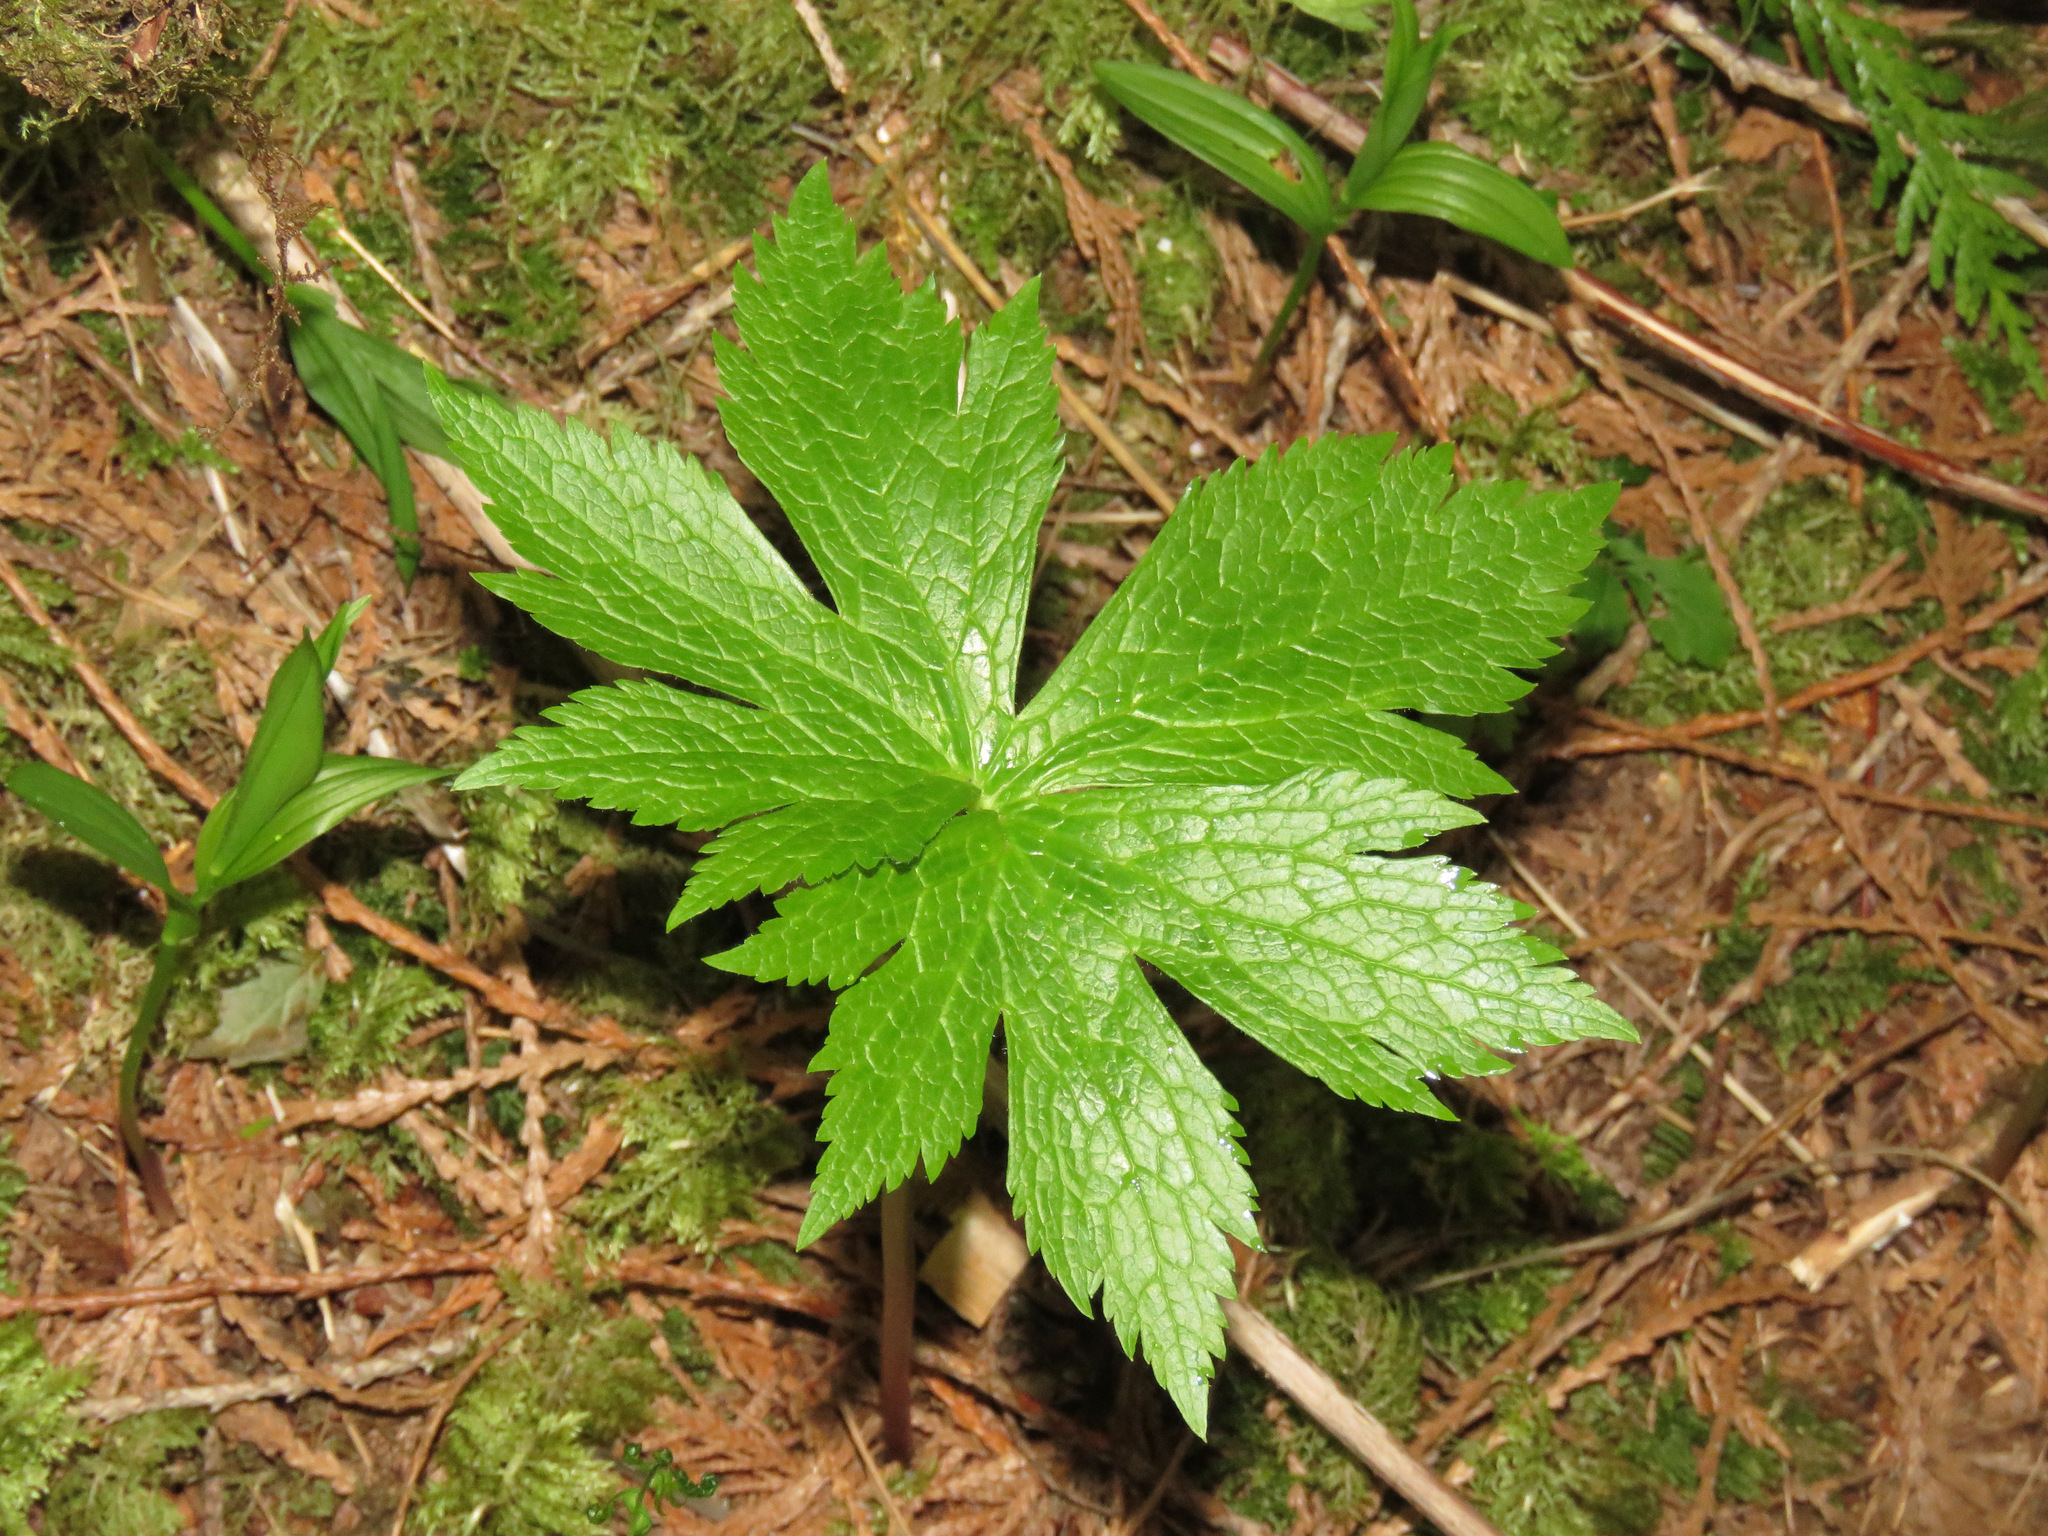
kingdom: Plantae
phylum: Tracheophyta
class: Magnoliopsida
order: Ranunculales
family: Ranunculaceae
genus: Trautvetteria
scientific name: Trautvetteria carolinensis
